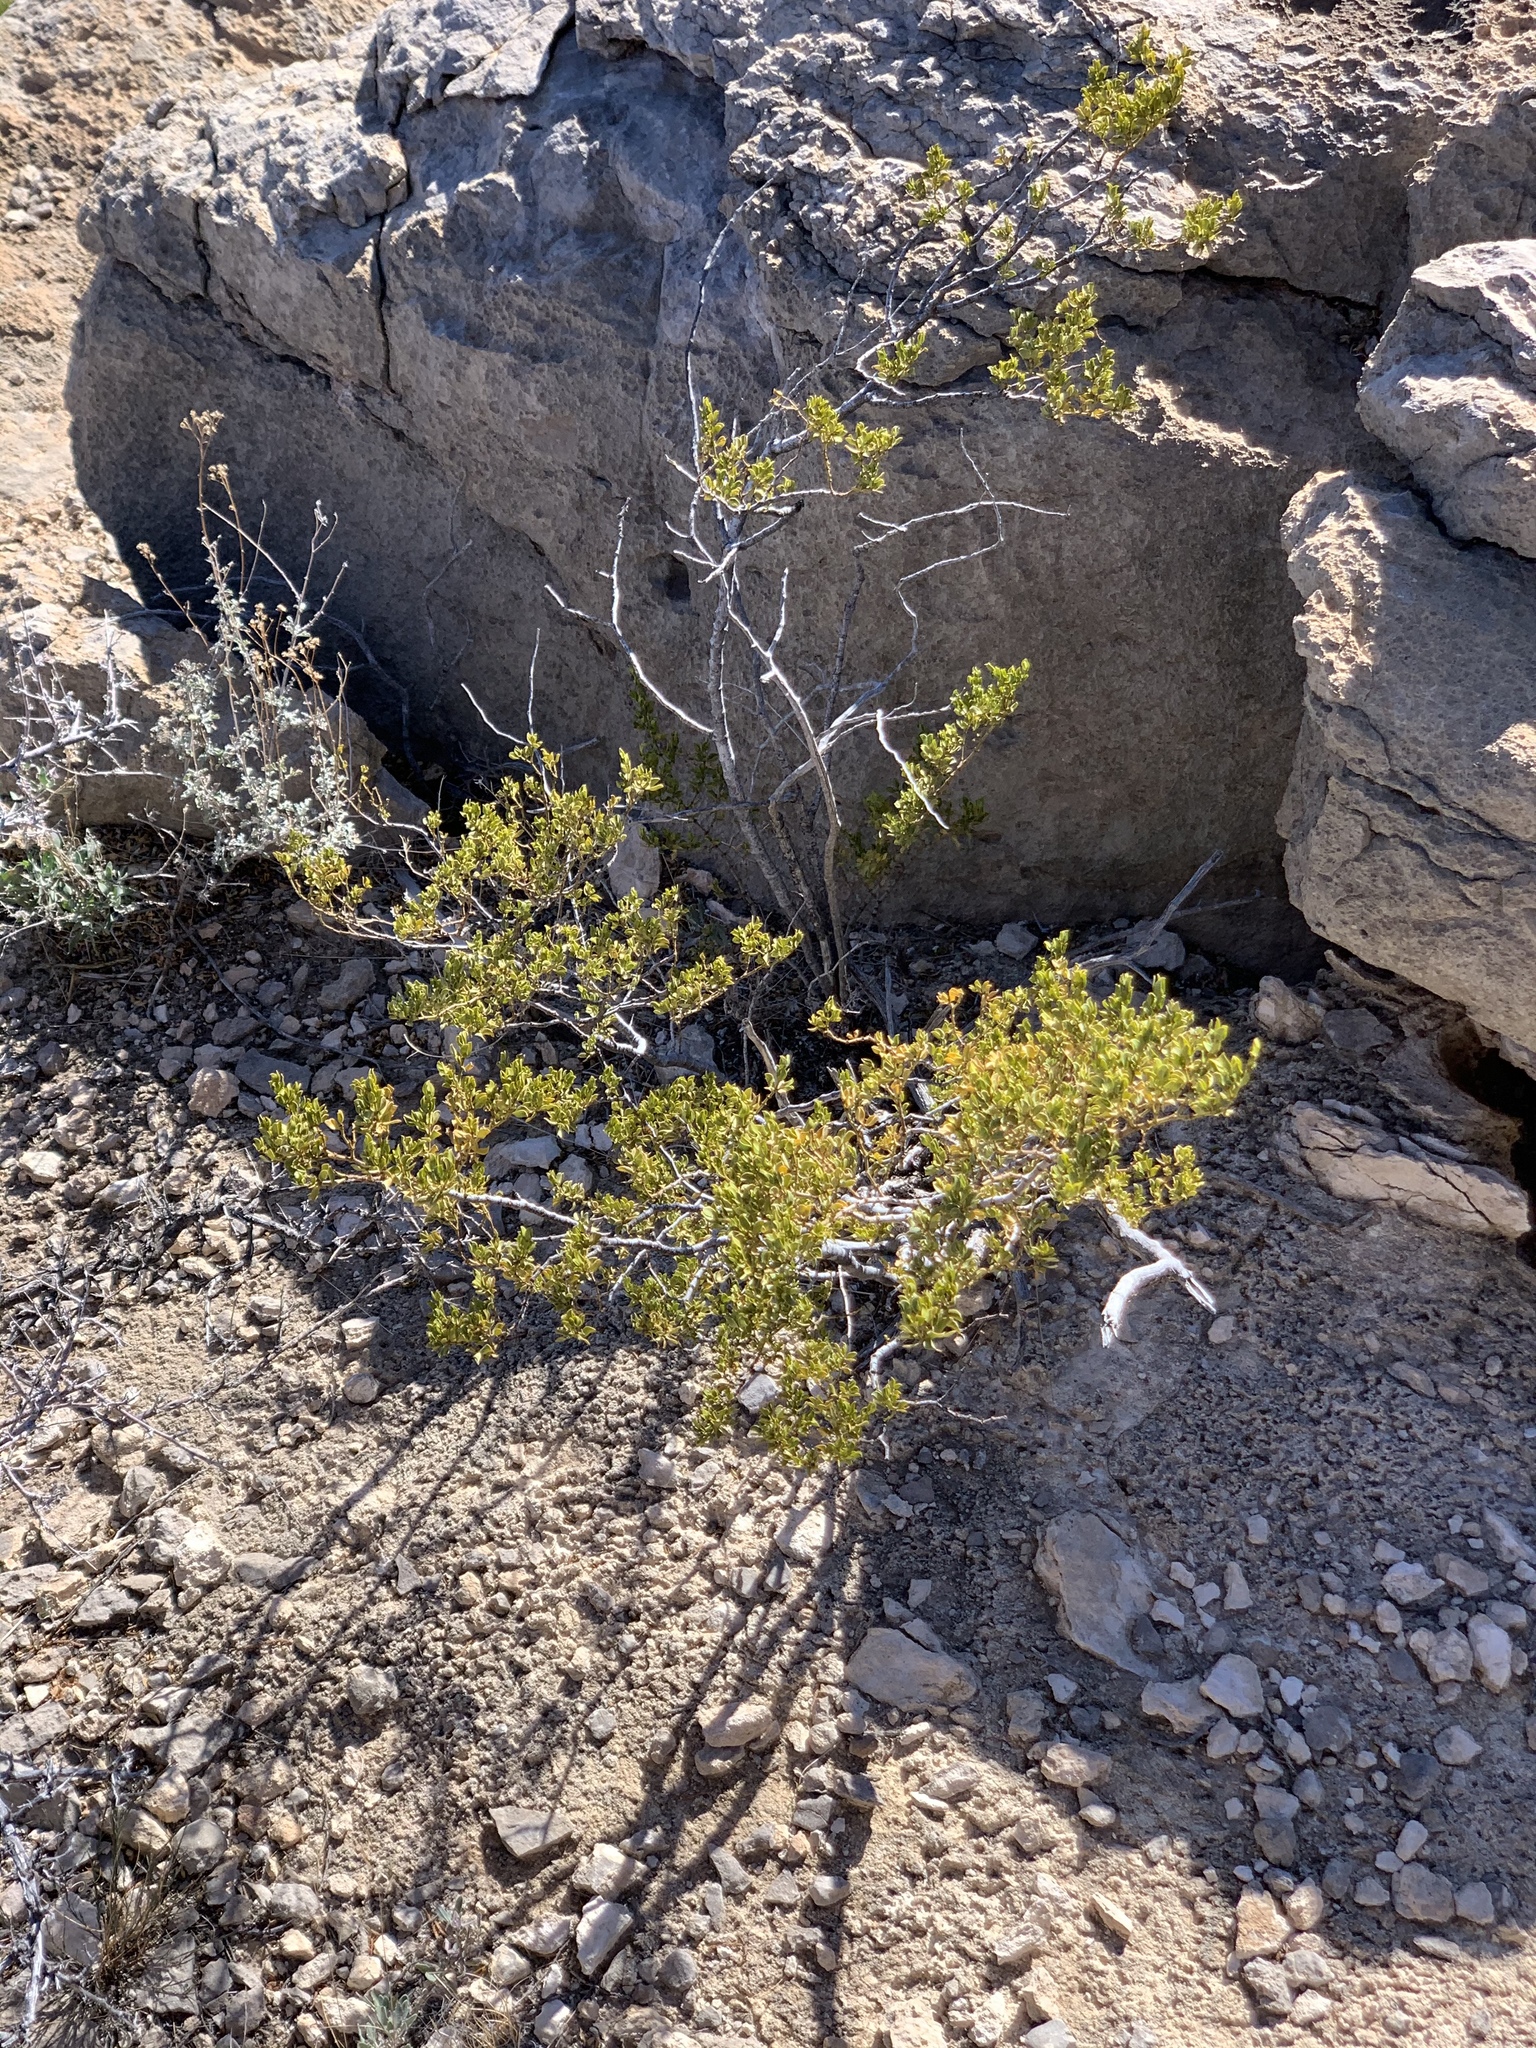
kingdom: Plantae
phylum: Tracheophyta
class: Magnoliopsida
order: Zygophyllales
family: Zygophyllaceae
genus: Larrea
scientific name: Larrea tridentata
